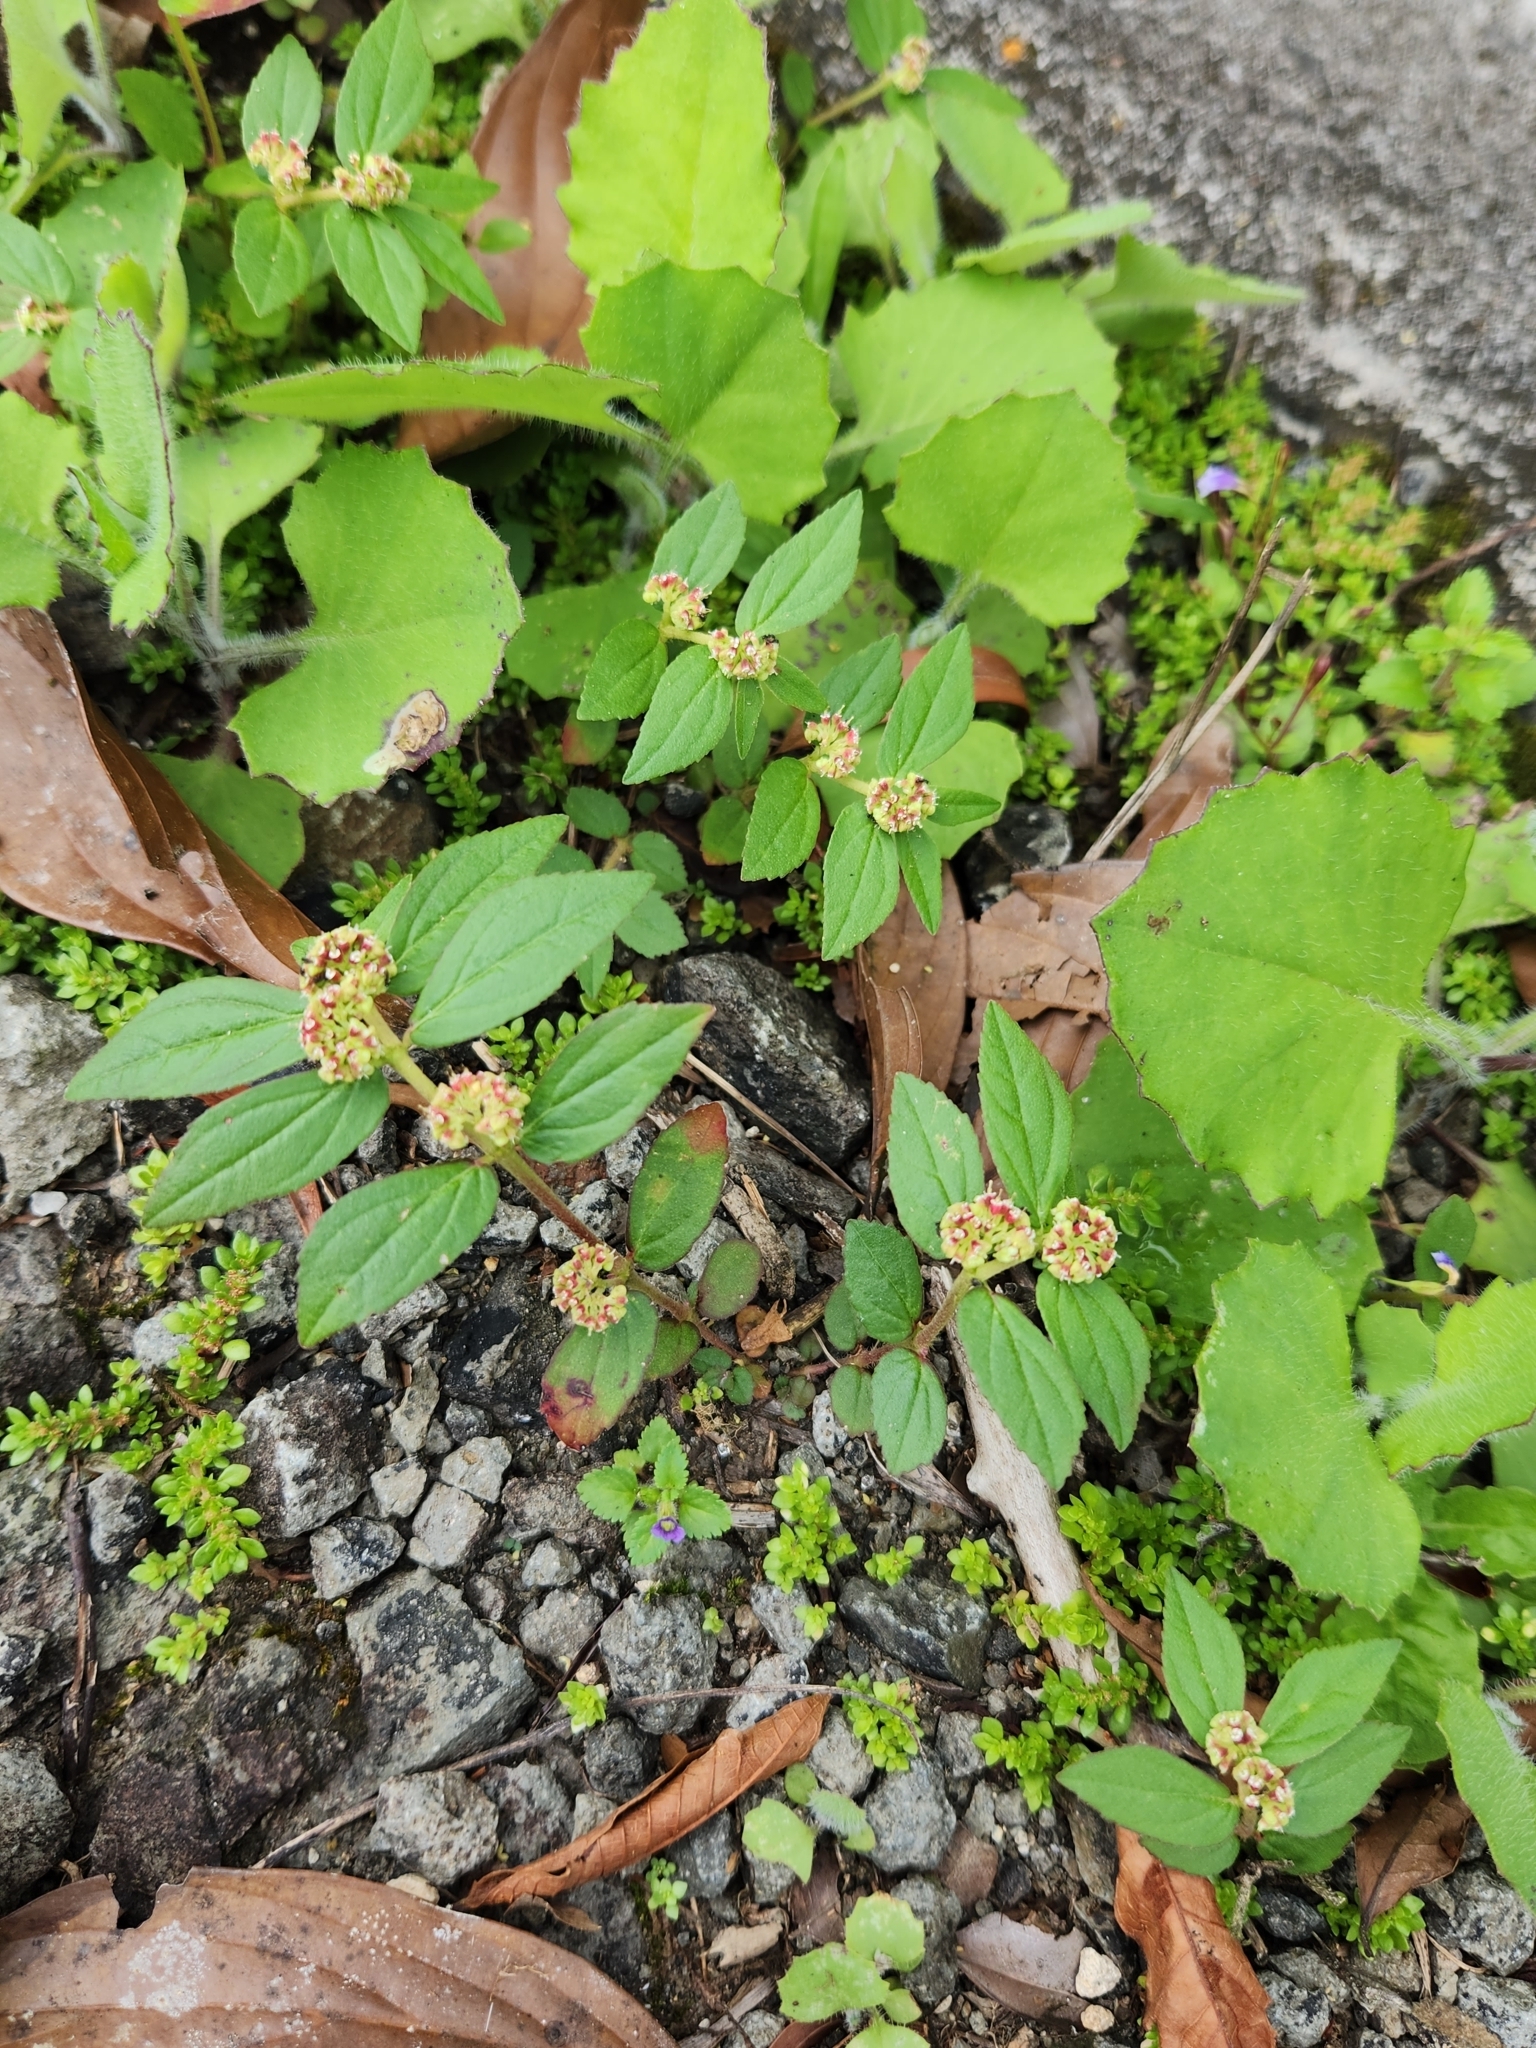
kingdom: Plantae
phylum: Tracheophyta
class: Magnoliopsida
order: Malpighiales
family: Euphorbiaceae
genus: Euphorbia
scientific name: Euphorbia hirta
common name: Pillpod sandmat
